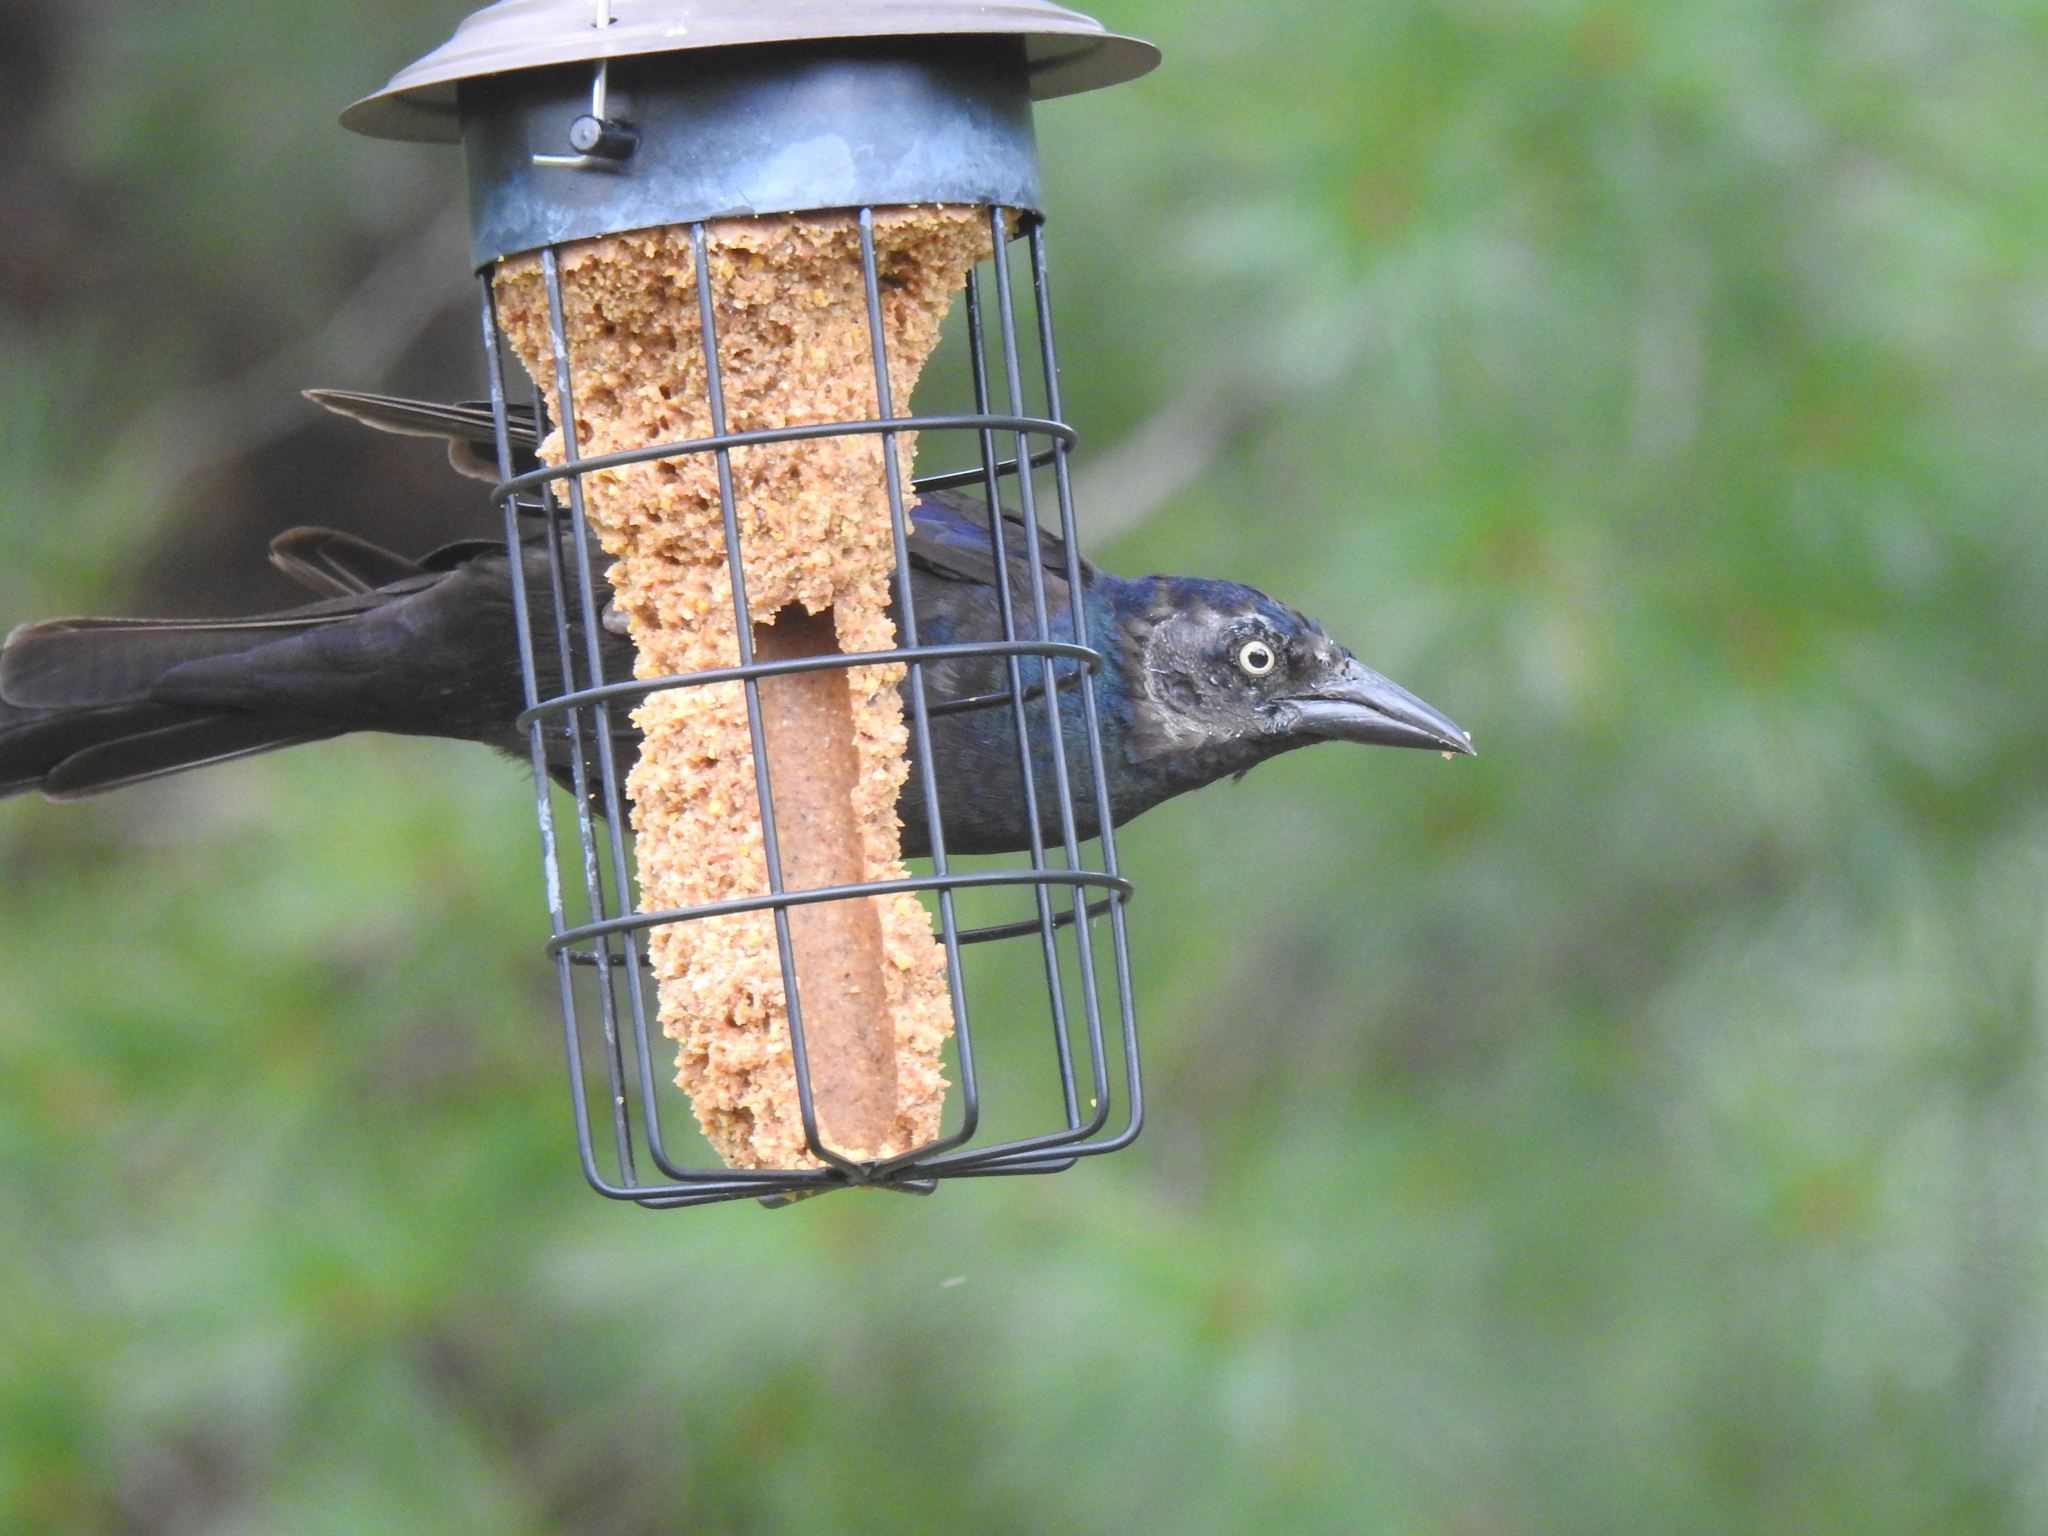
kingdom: Animalia
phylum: Chordata
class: Aves
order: Passeriformes
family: Icteridae
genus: Quiscalus
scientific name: Quiscalus quiscula
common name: Common grackle
